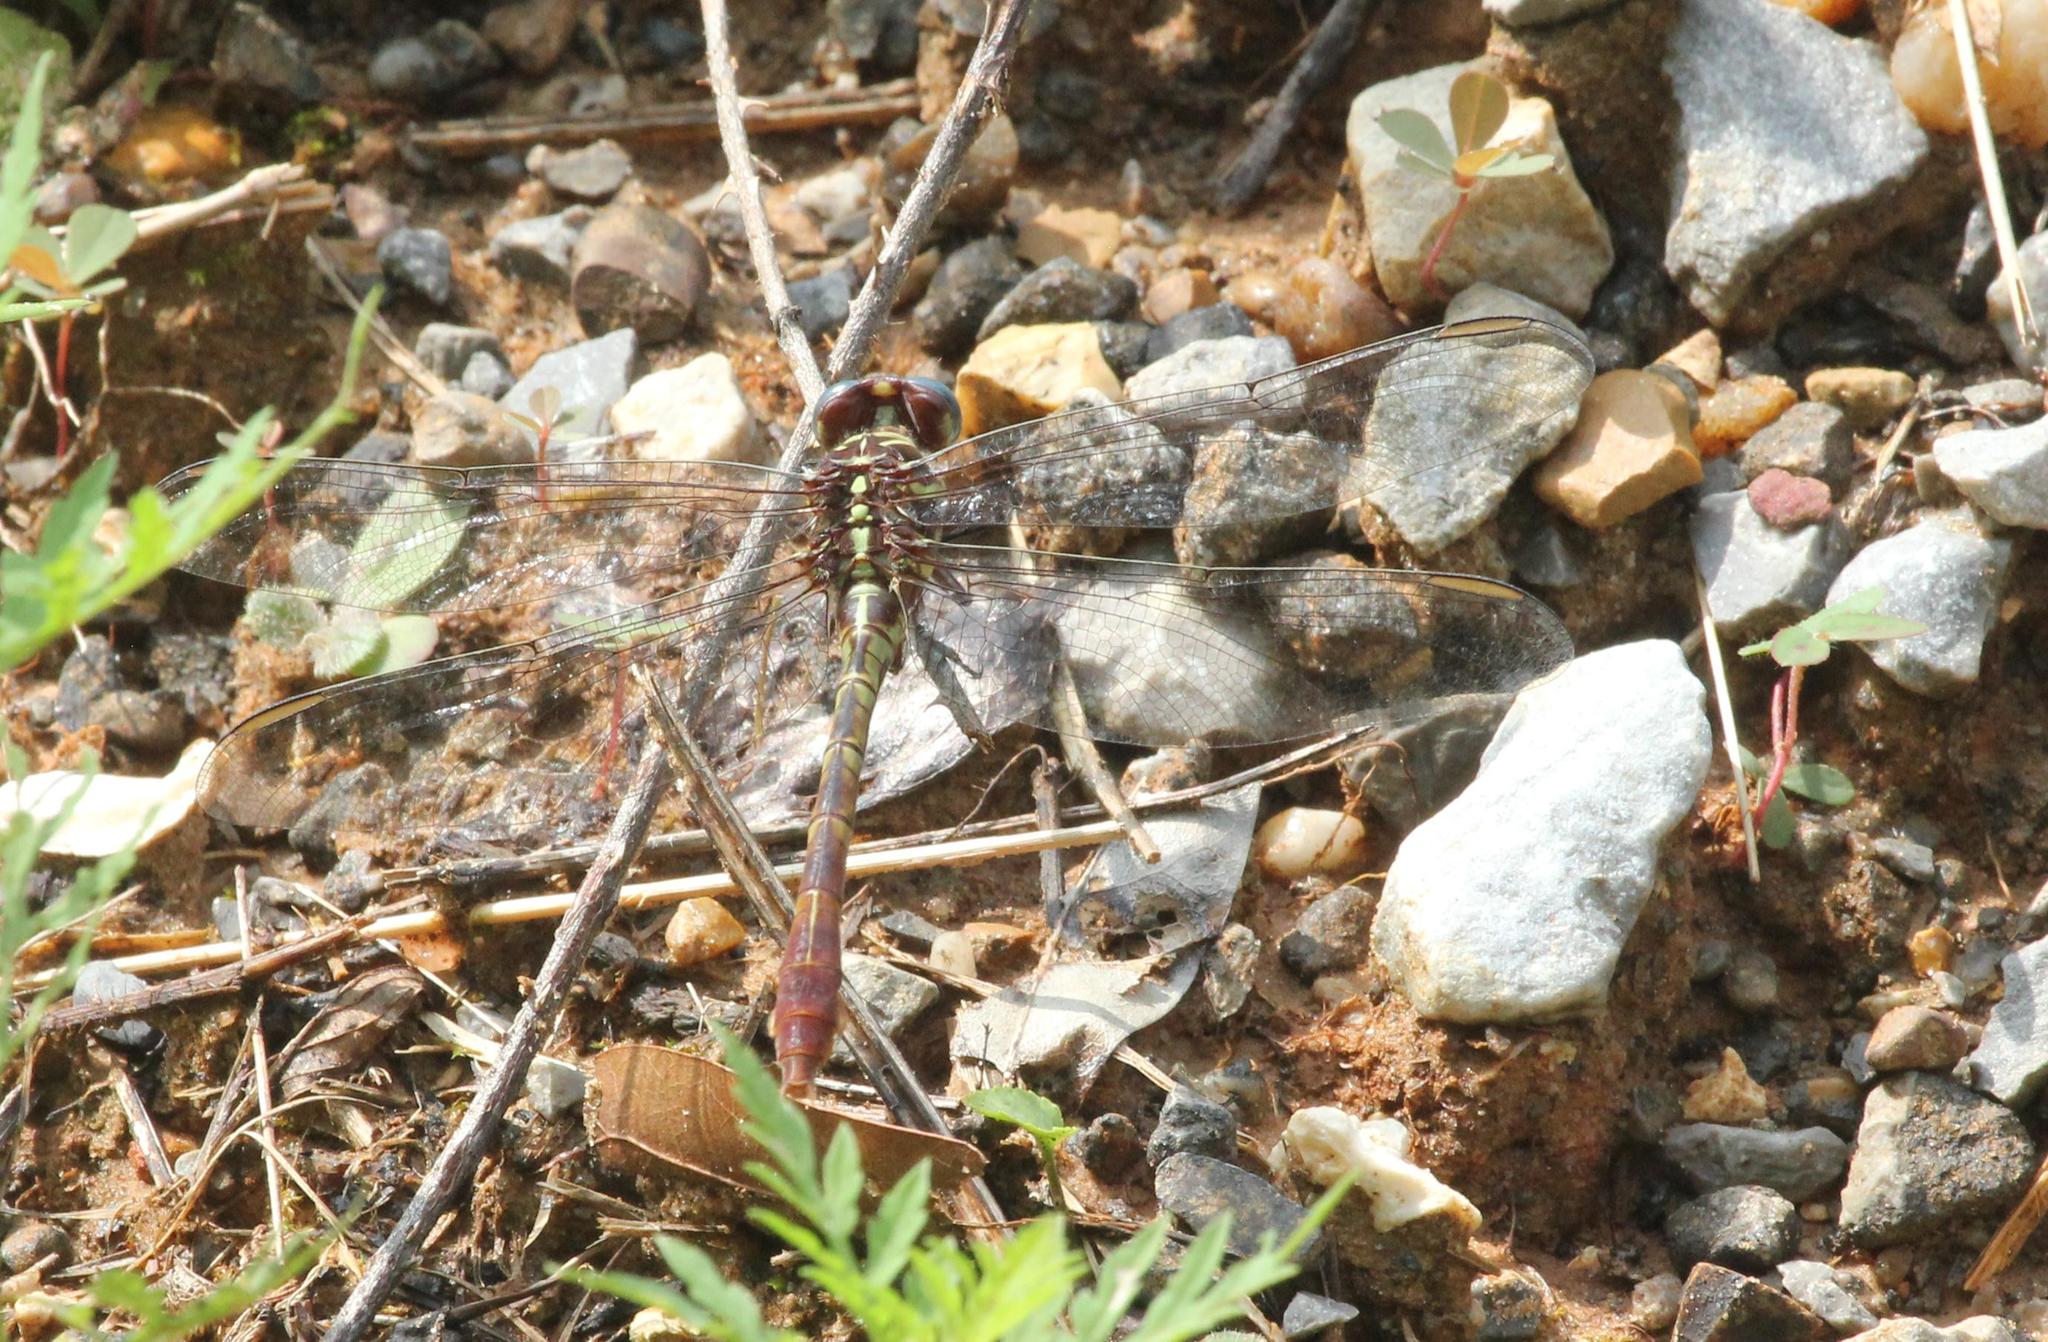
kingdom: Animalia
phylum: Arthropoda
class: Insecta
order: Odonata
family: Gomphidae
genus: Aphylla
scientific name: Aphylla williamsoni
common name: Two-striped forceptail
